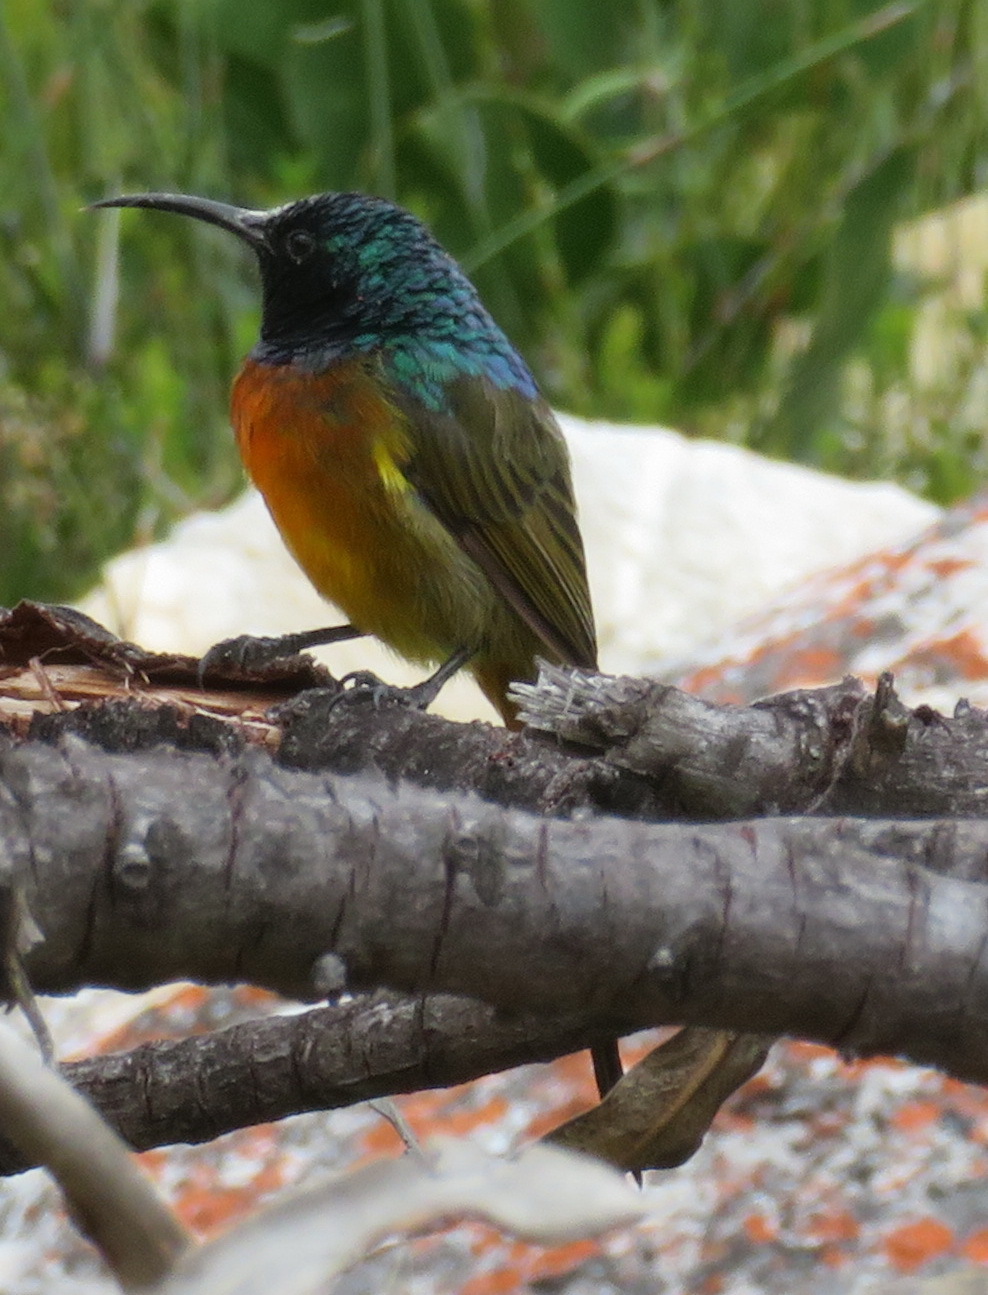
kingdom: Animalia
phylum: Chordata
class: Aves
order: Passeriformes
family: Nectariniidae
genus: Anthobaphes
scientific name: Anthobaphes violacea
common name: Orange-breasted sunbird
